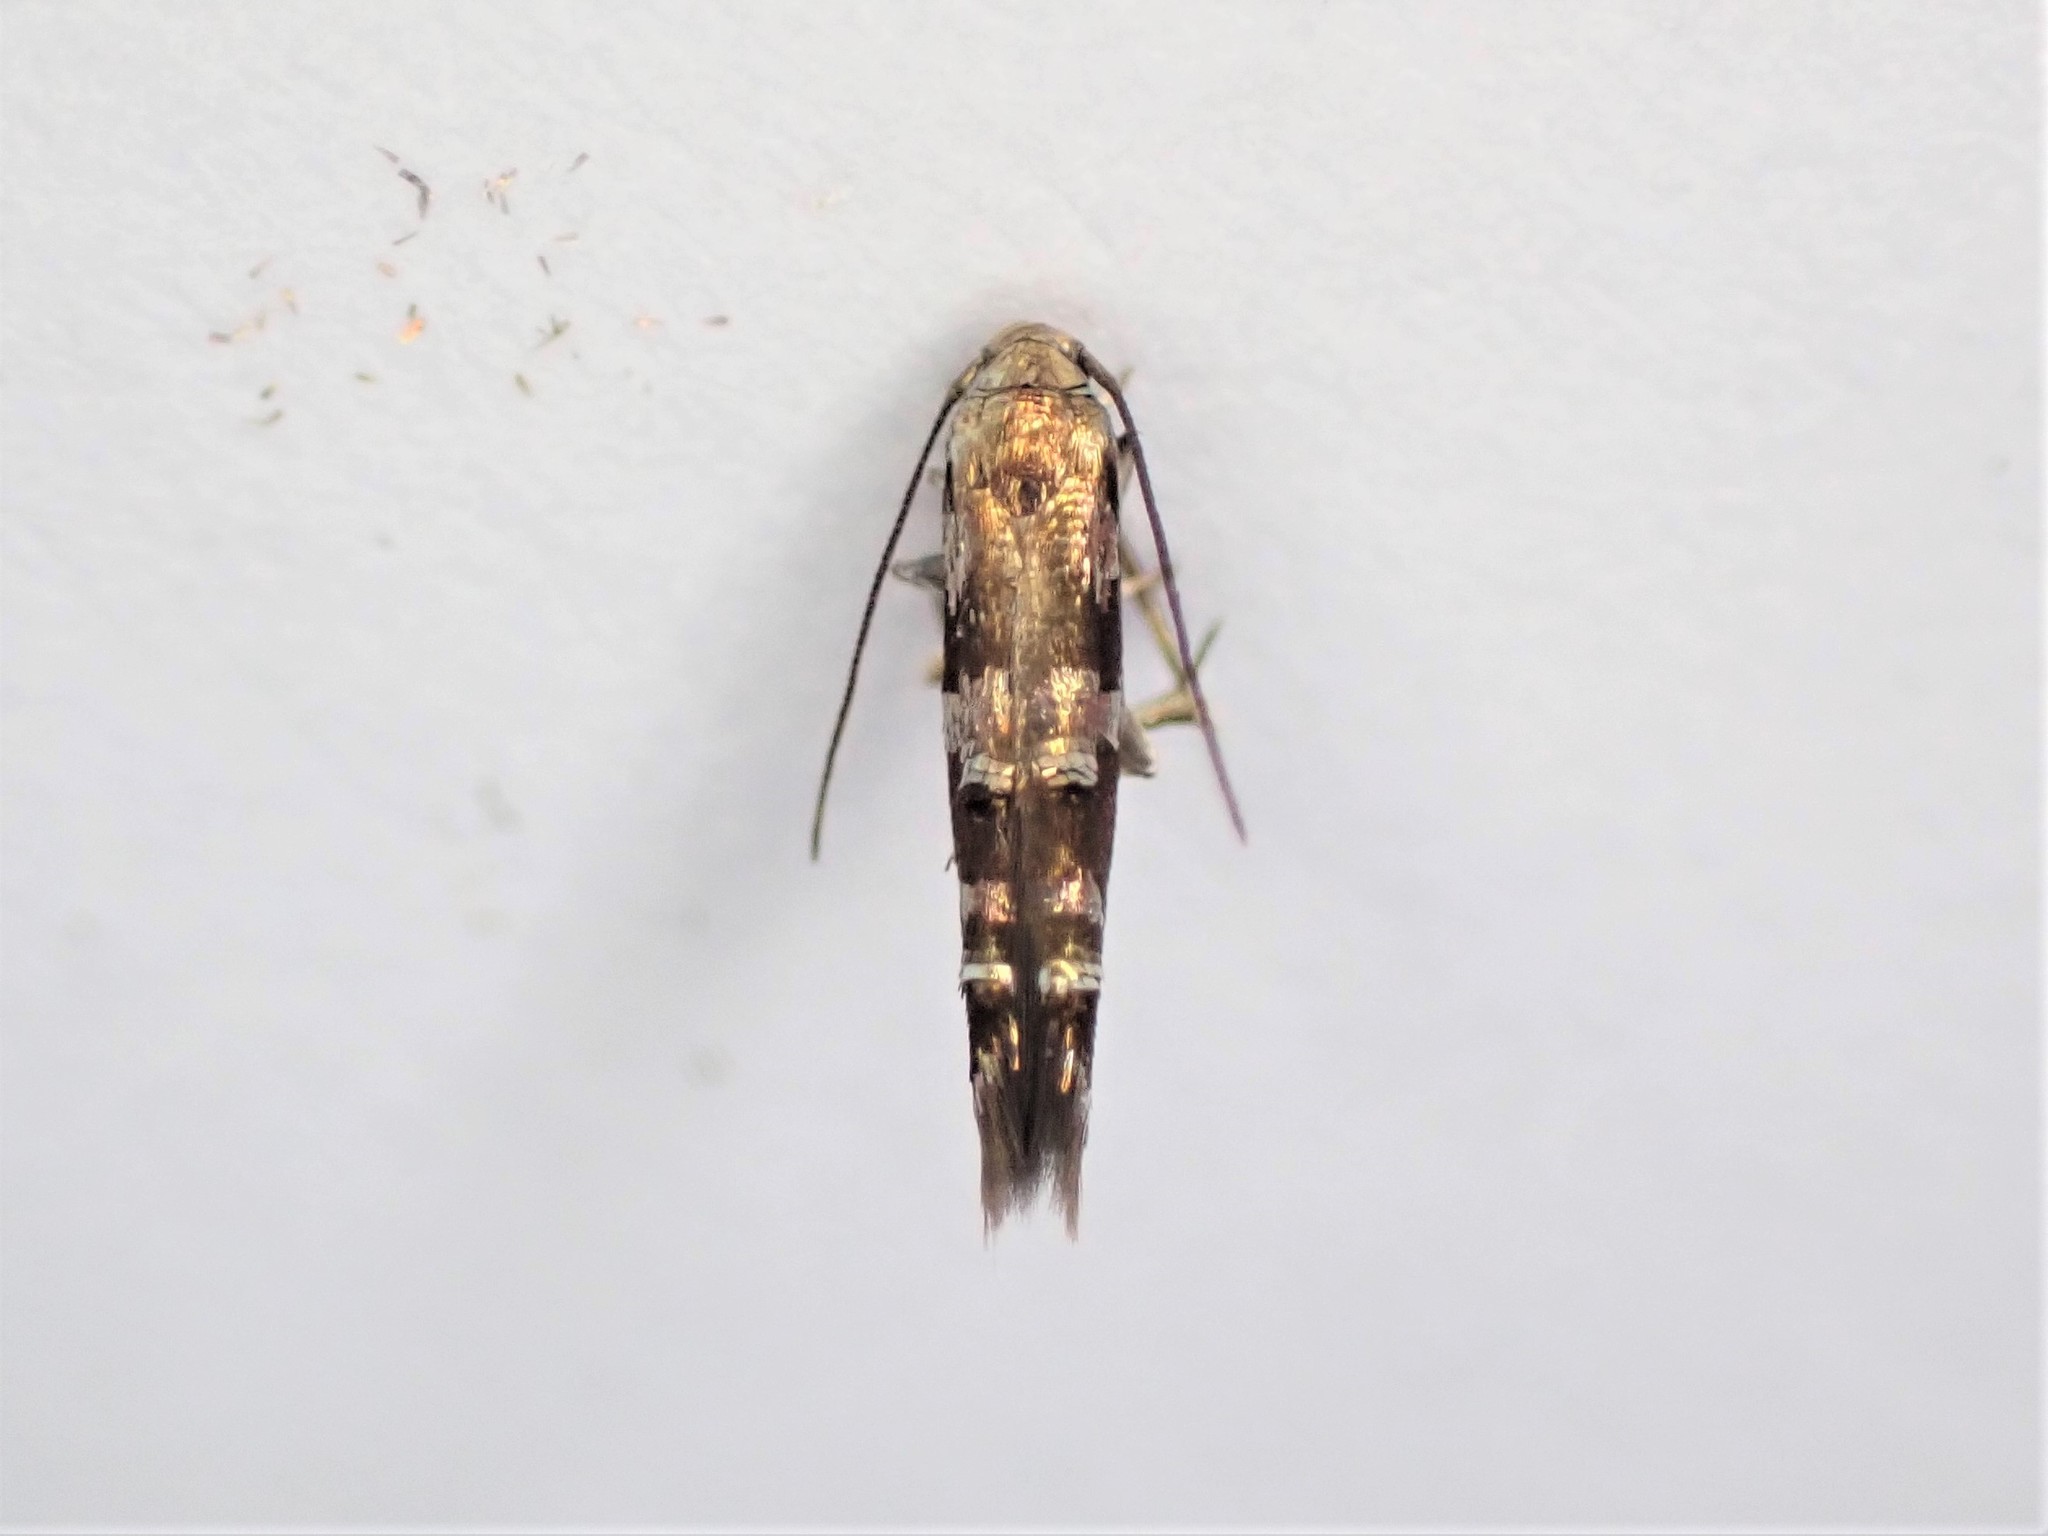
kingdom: Animalia
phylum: Arthropoda
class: Insecta
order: Lepidoptera
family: Momphidae
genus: Zapyrastra
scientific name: Zapyrastra calliphana
